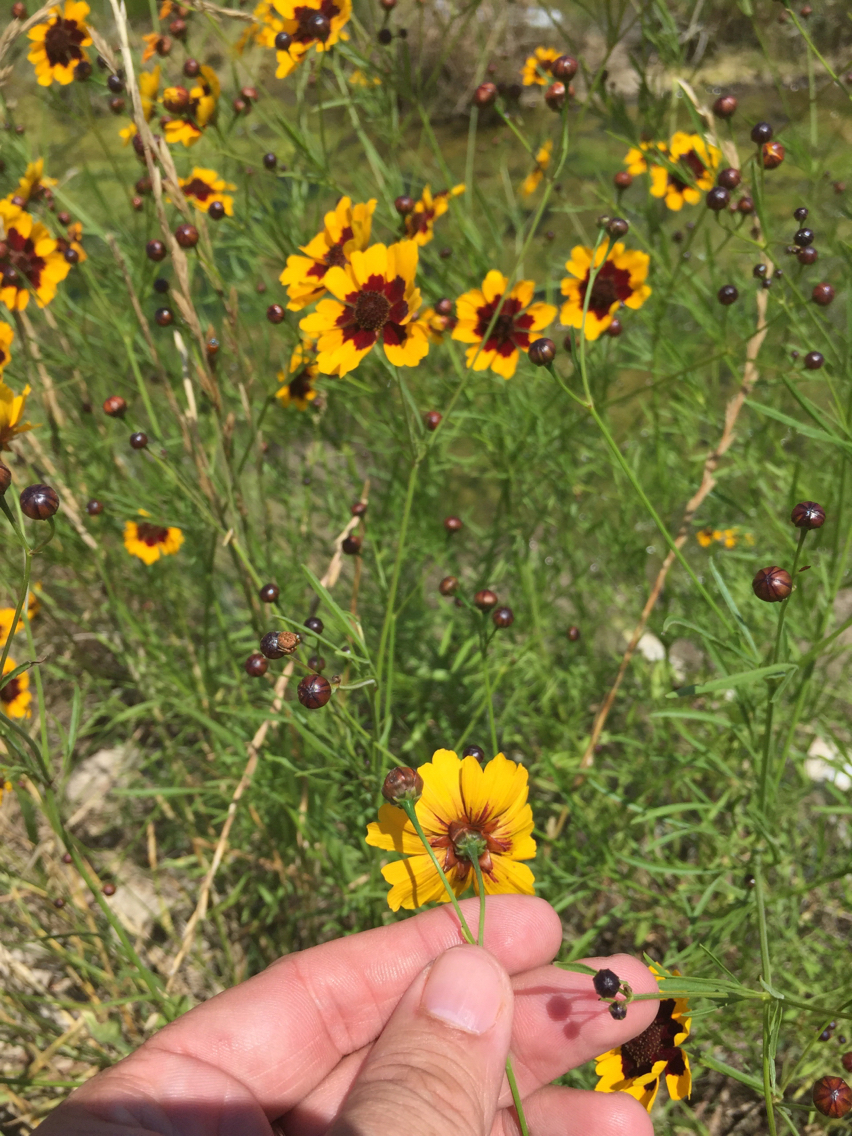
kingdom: Plantae
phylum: Tracheophyta
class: Magnoliopsida
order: Asterales
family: Asteraceae
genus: Coreopsis
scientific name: Coreopsis tinctoria
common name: Garden tickseed
